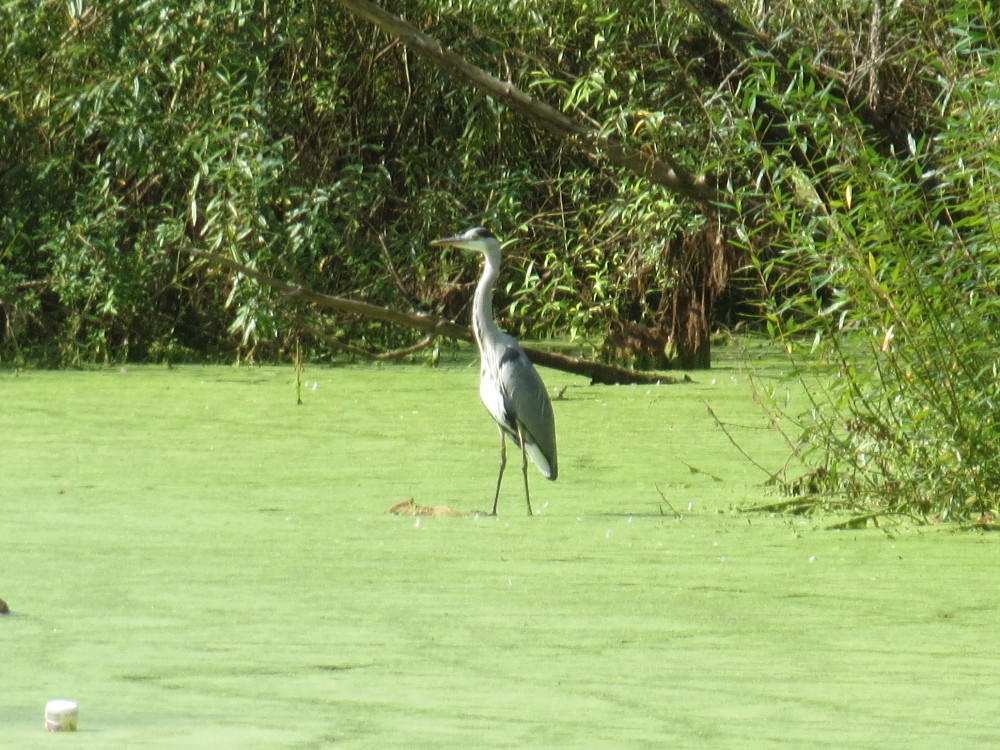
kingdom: Animalia
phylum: Chordata
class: Aves
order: Pelecaniformes
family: Ardeidae
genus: Ardea
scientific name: Ardea cinerea
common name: Grey heron
